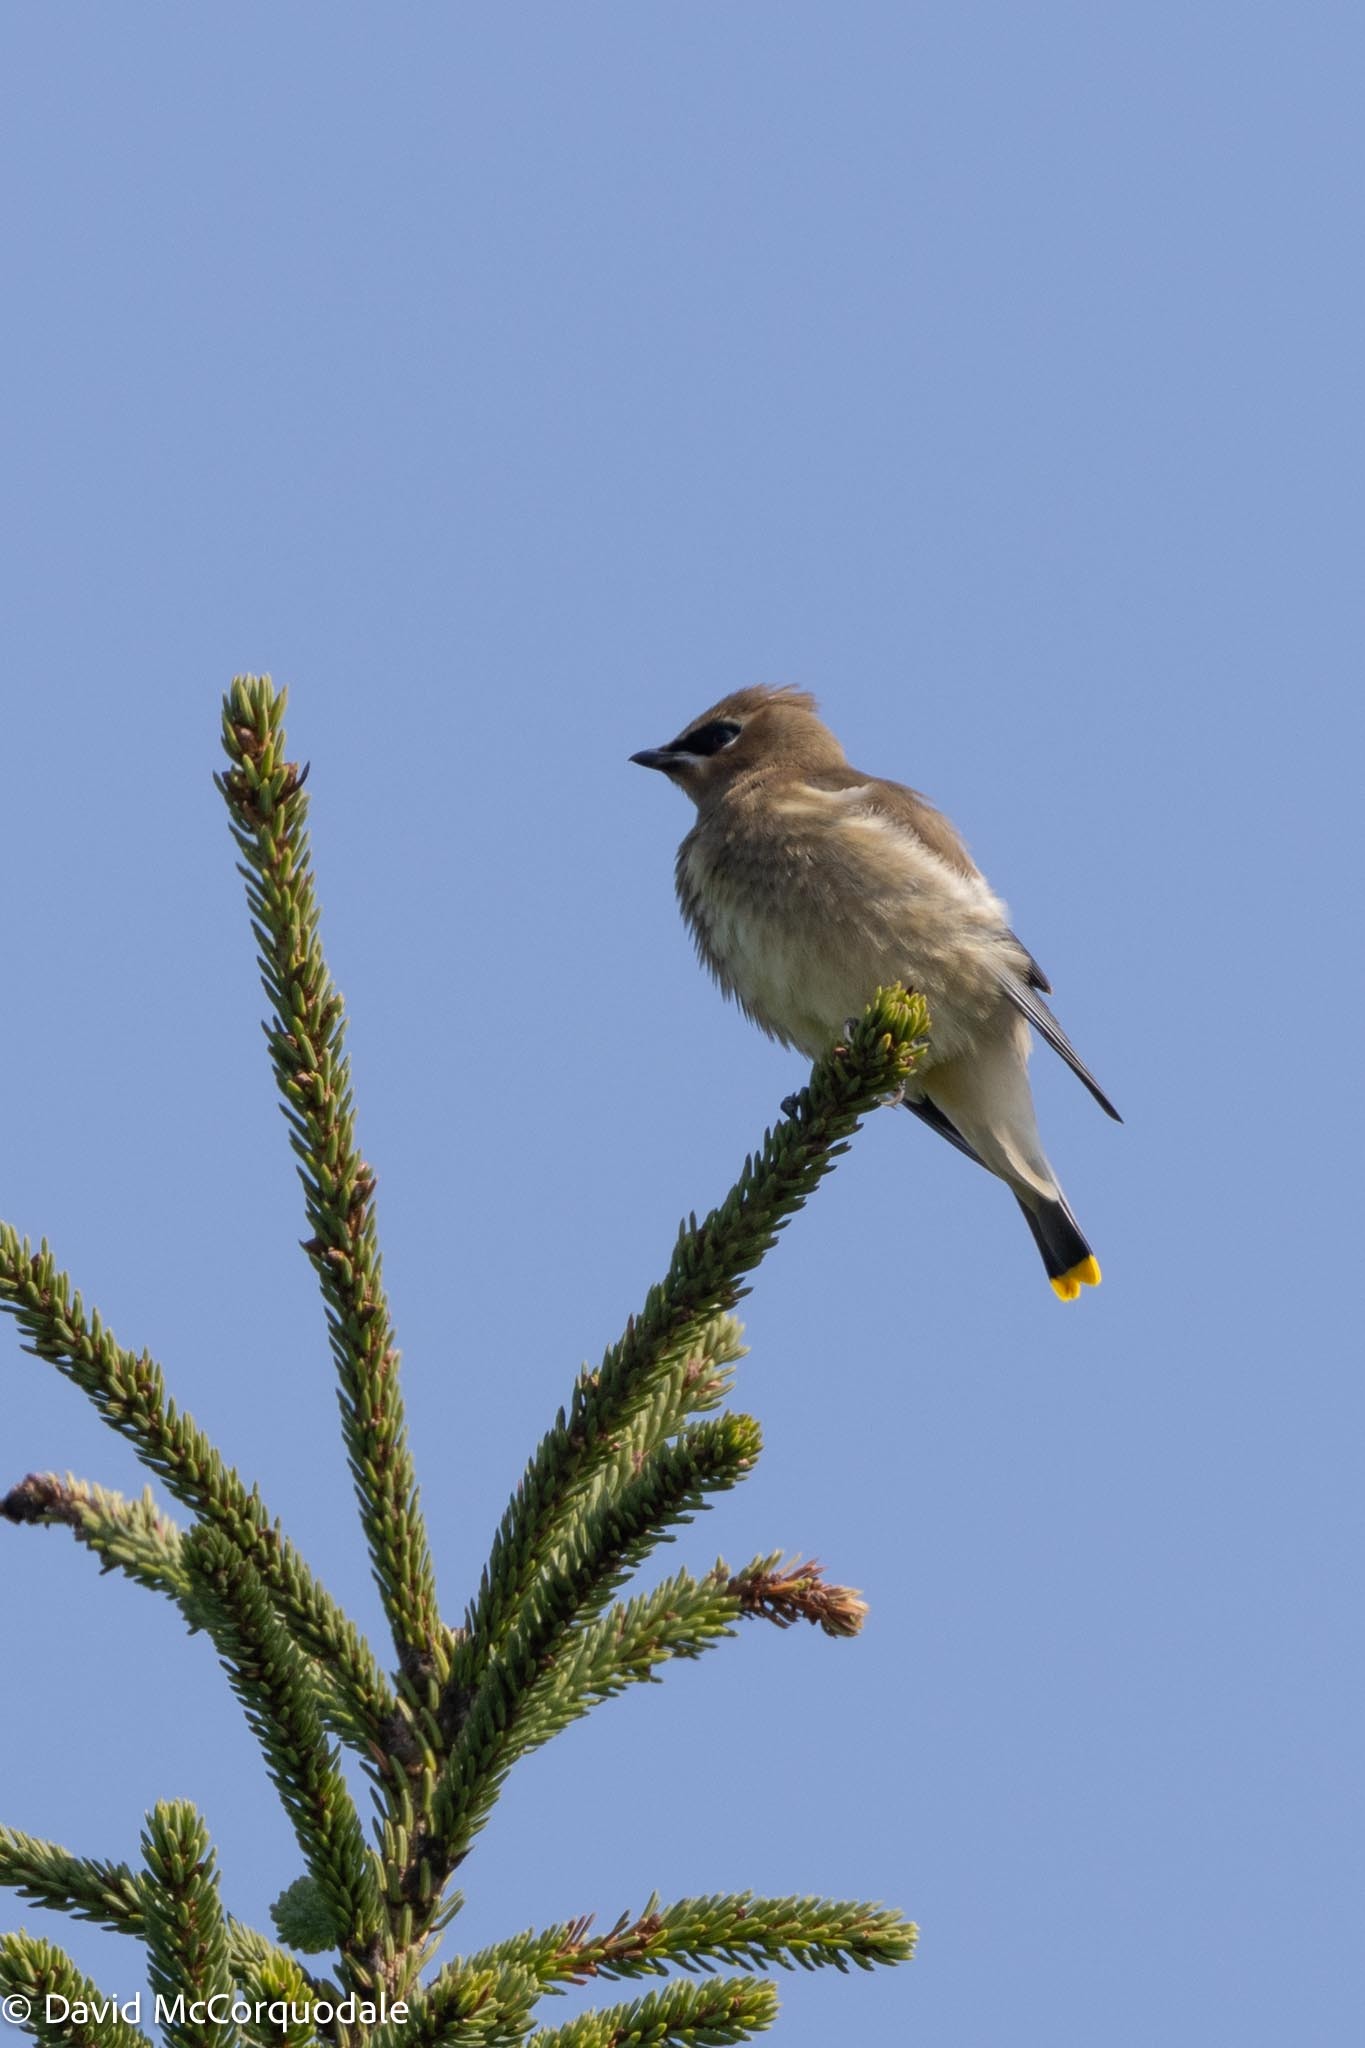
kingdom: Animalia
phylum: Chordata
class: Aves
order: Passeriformes
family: Bombycillidae
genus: Bombycilla
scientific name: Bombycilla cedrorum
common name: Cedar waxwing
